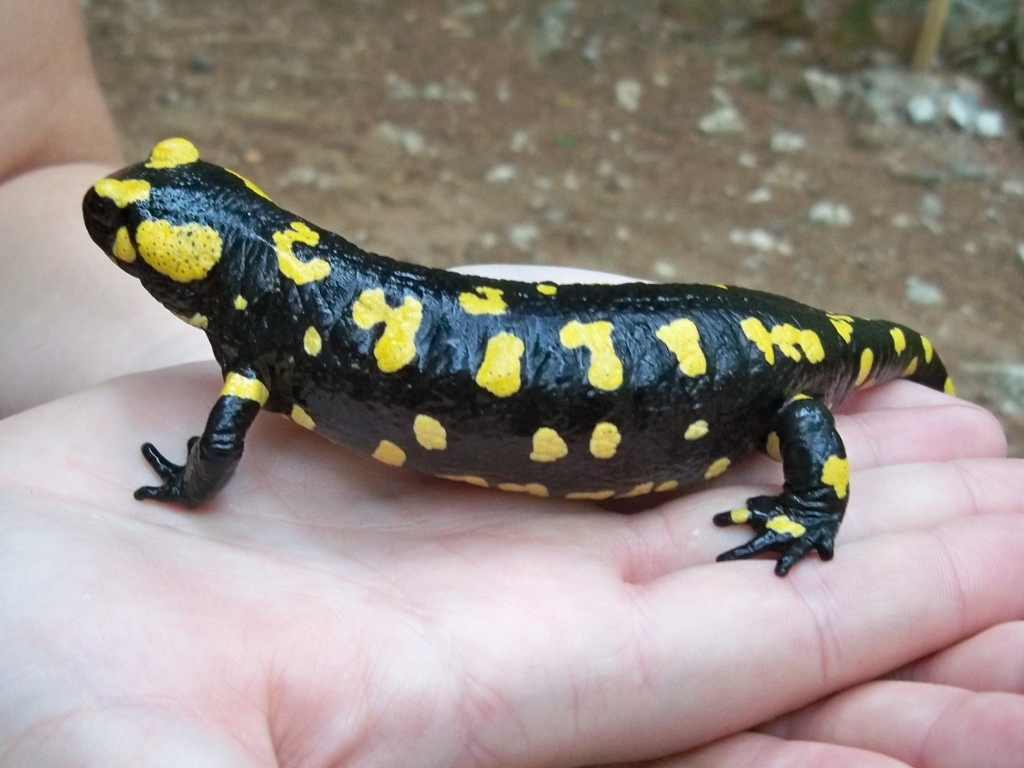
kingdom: Animalia
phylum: Chordata
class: Amphibia
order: Caudata
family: Salamandridae
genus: Salamandra
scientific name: Salamandra longirostris
